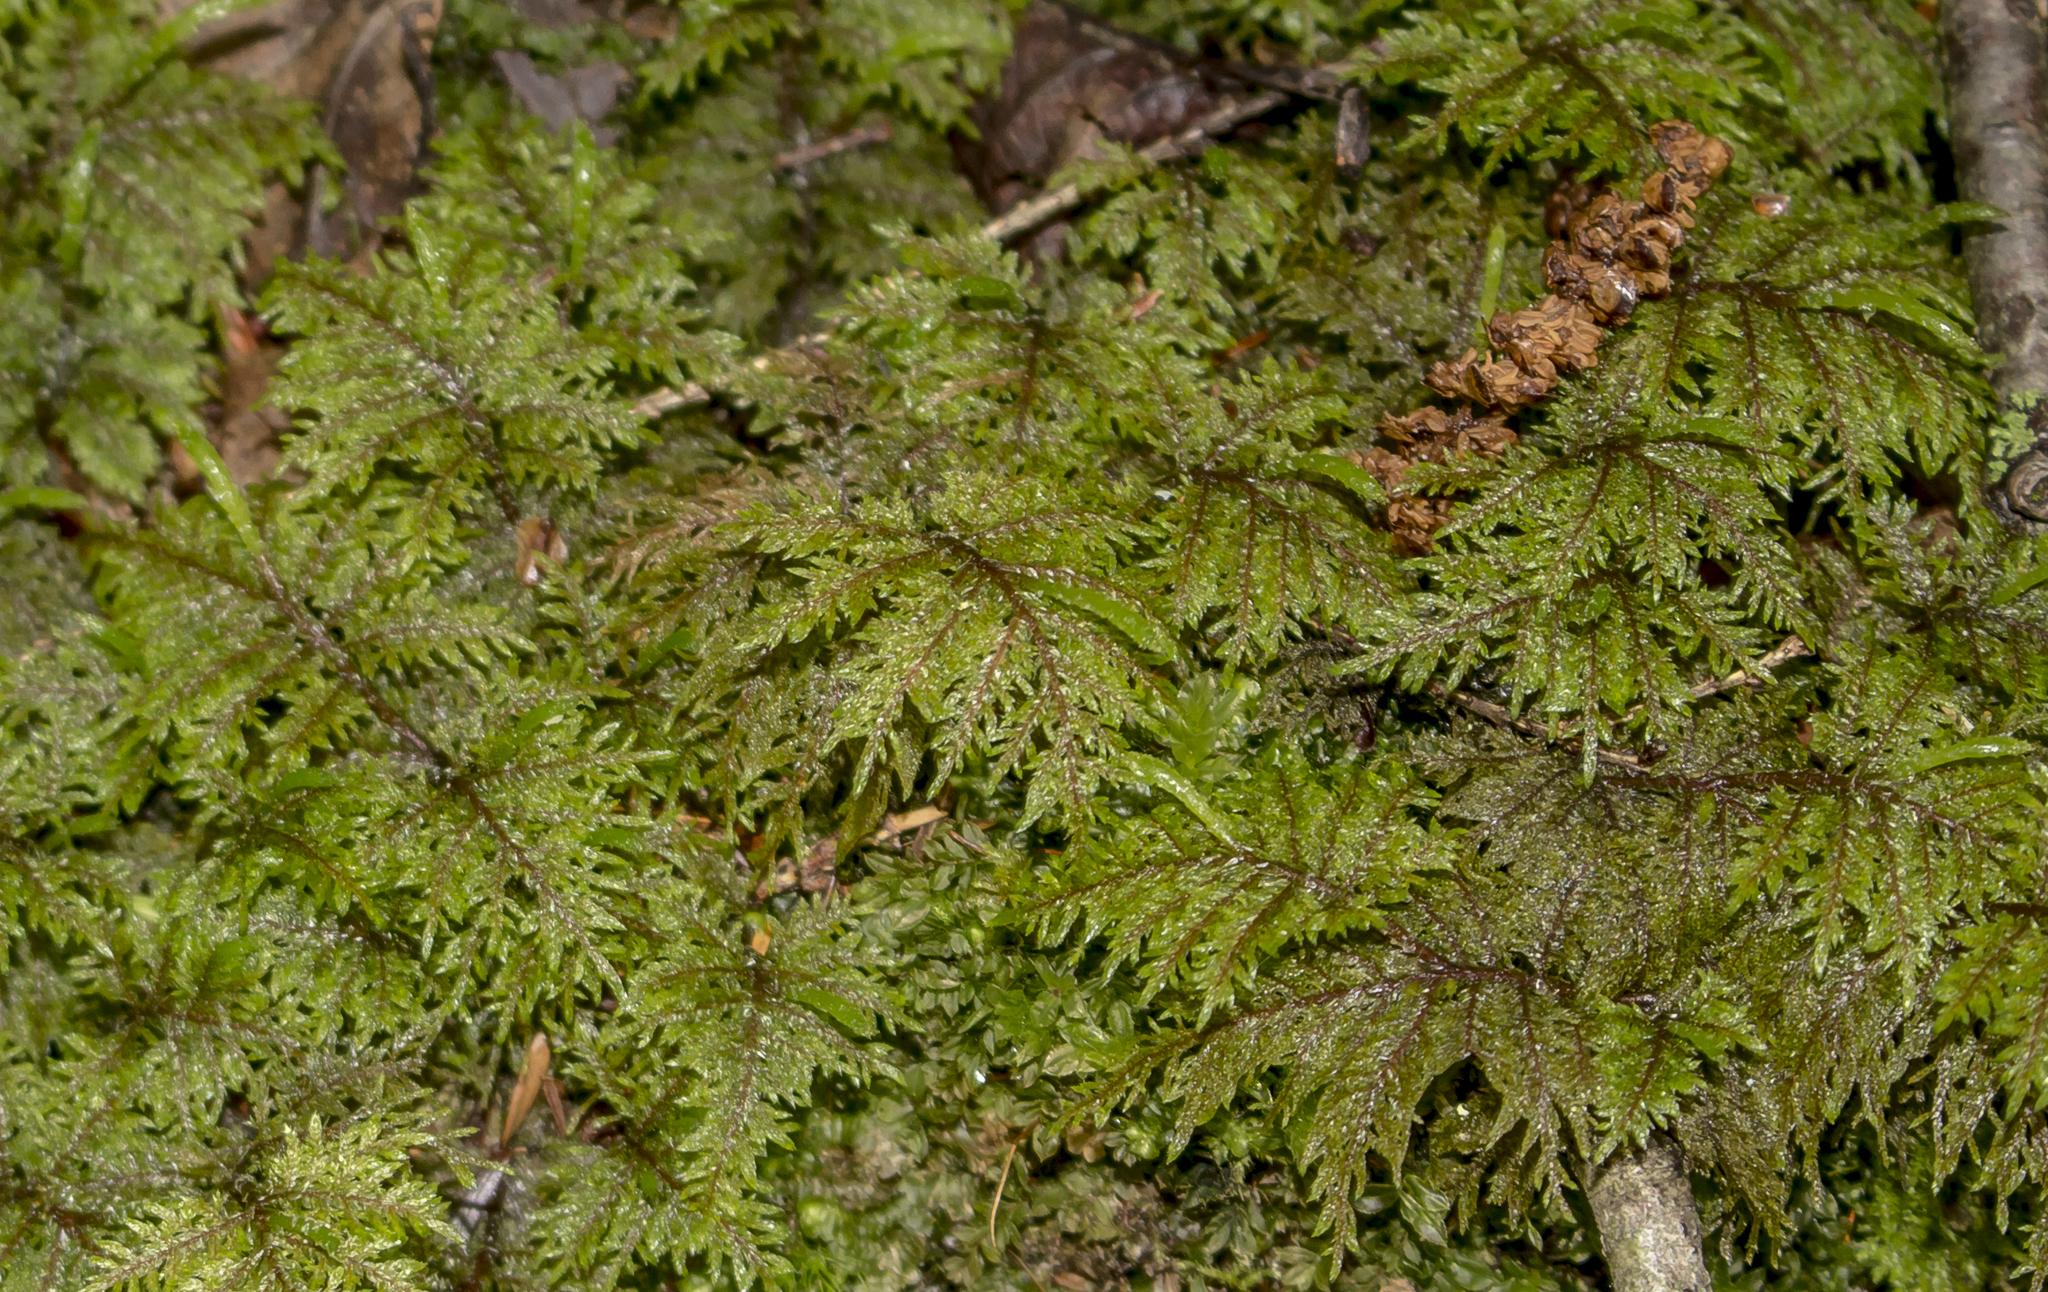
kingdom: Plantae
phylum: Bryophyta
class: Bryopsida
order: Hypnales
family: Hylocomiaceae
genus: Hylocomium
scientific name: Hylocomium splendens
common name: Stairstep moss
